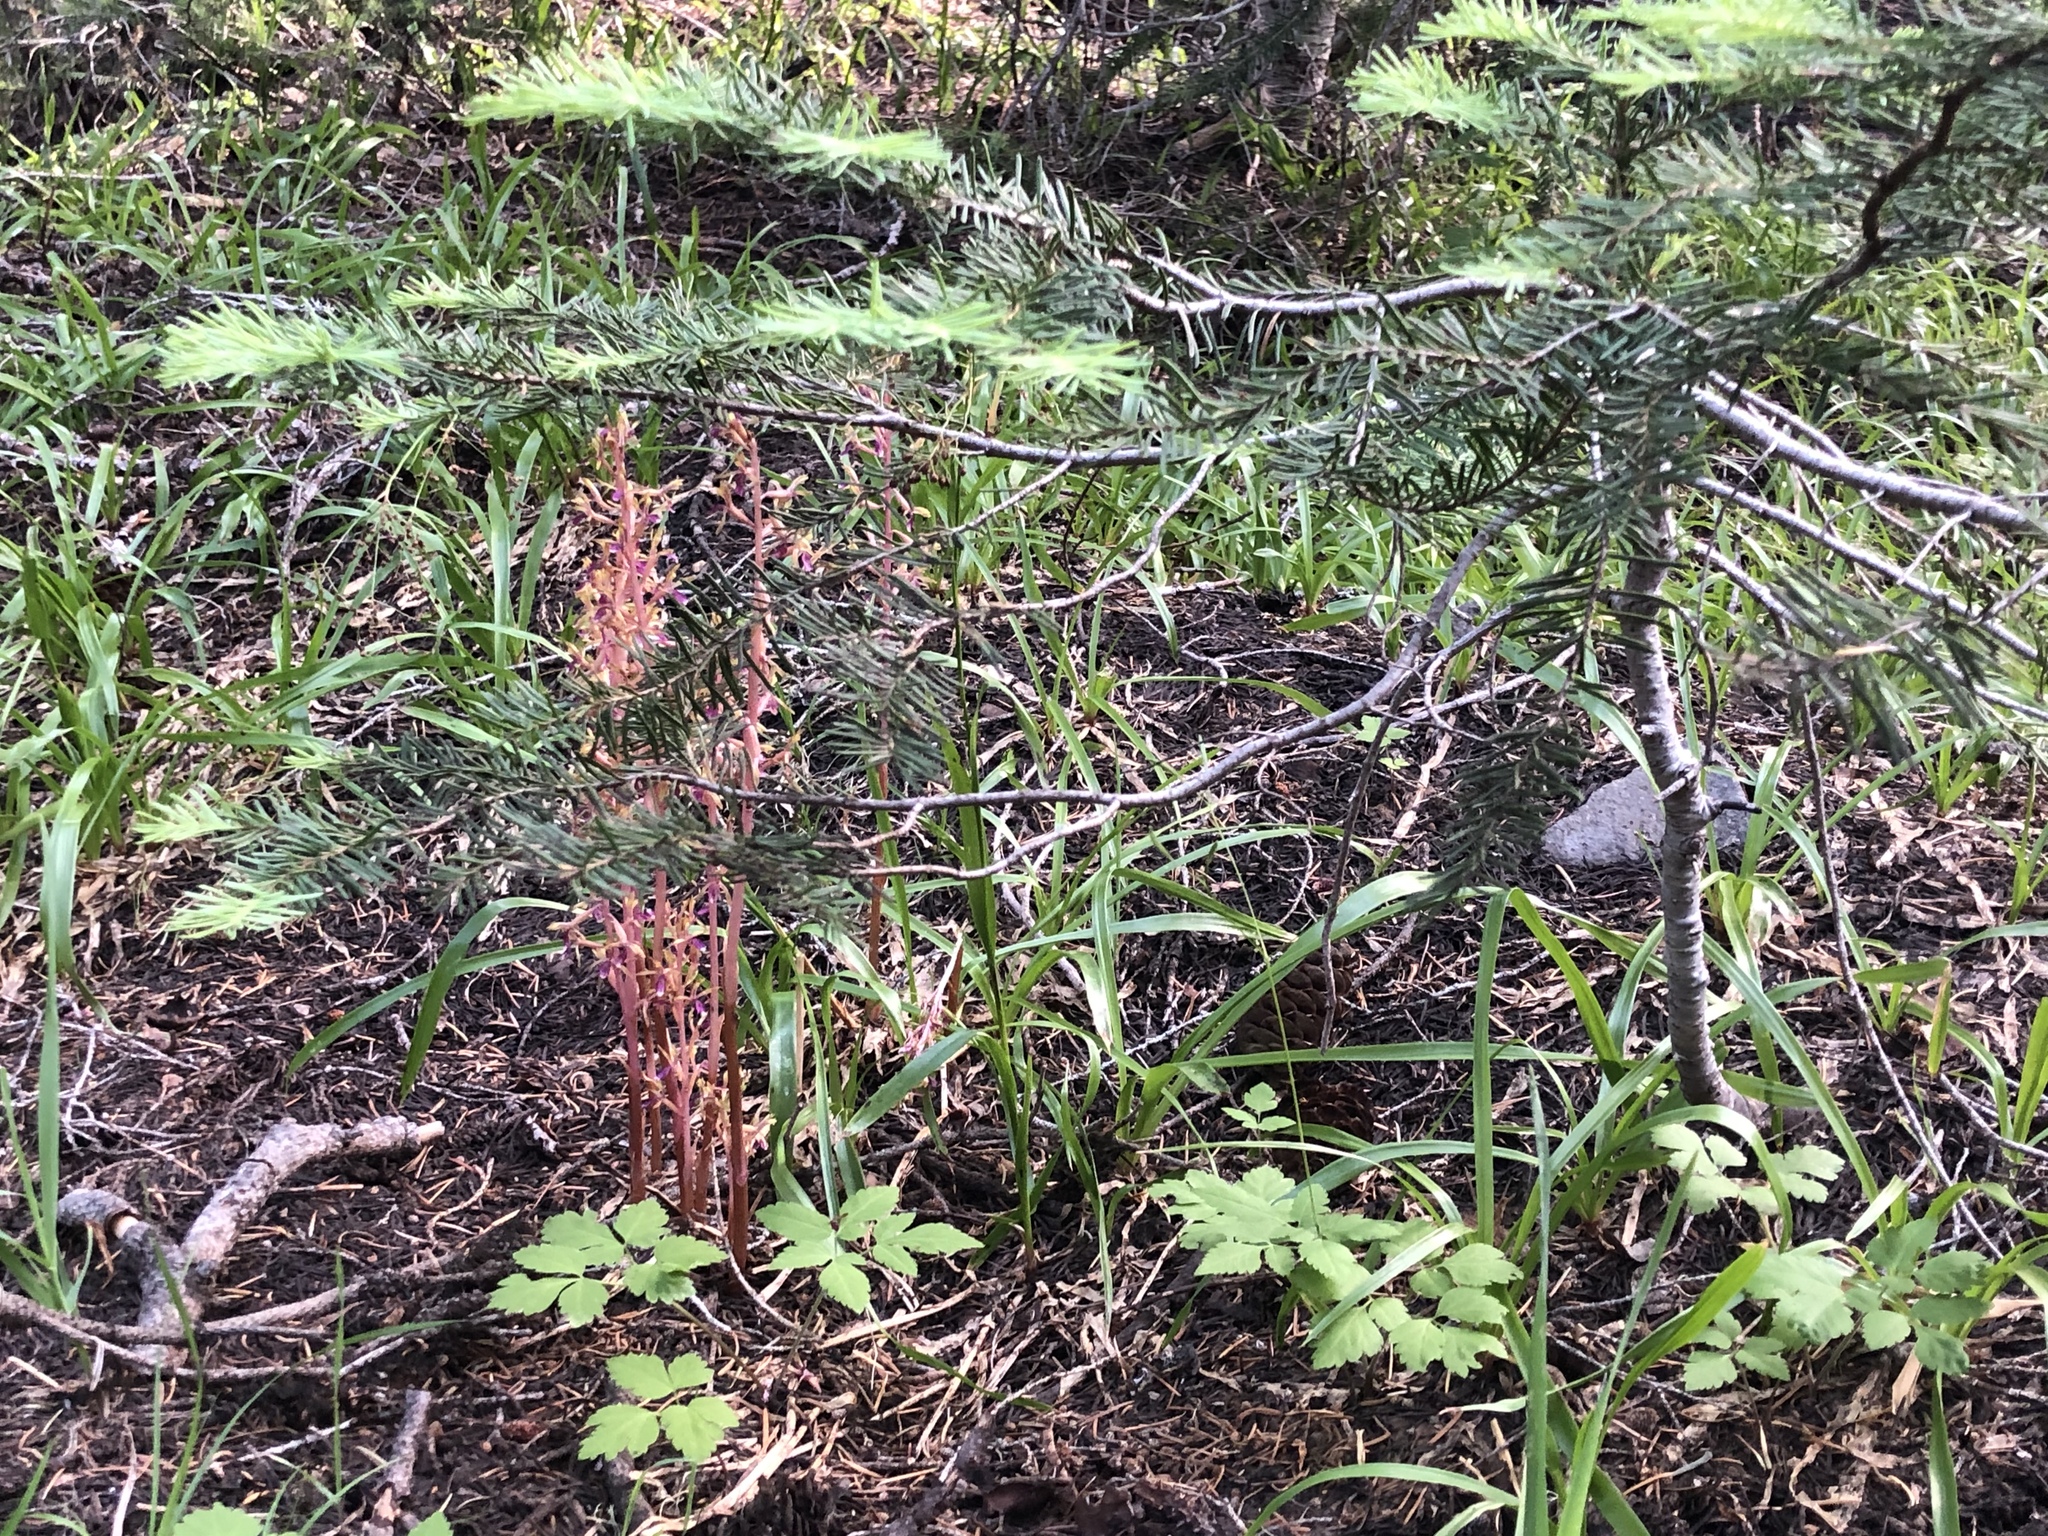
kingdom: Plantae
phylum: Tracheophyta
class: Liliopsida
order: Asparagales
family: Orchidaceae
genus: Corallorhiza
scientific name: Corallorhiza mertensiana
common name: Pacific coralroot
